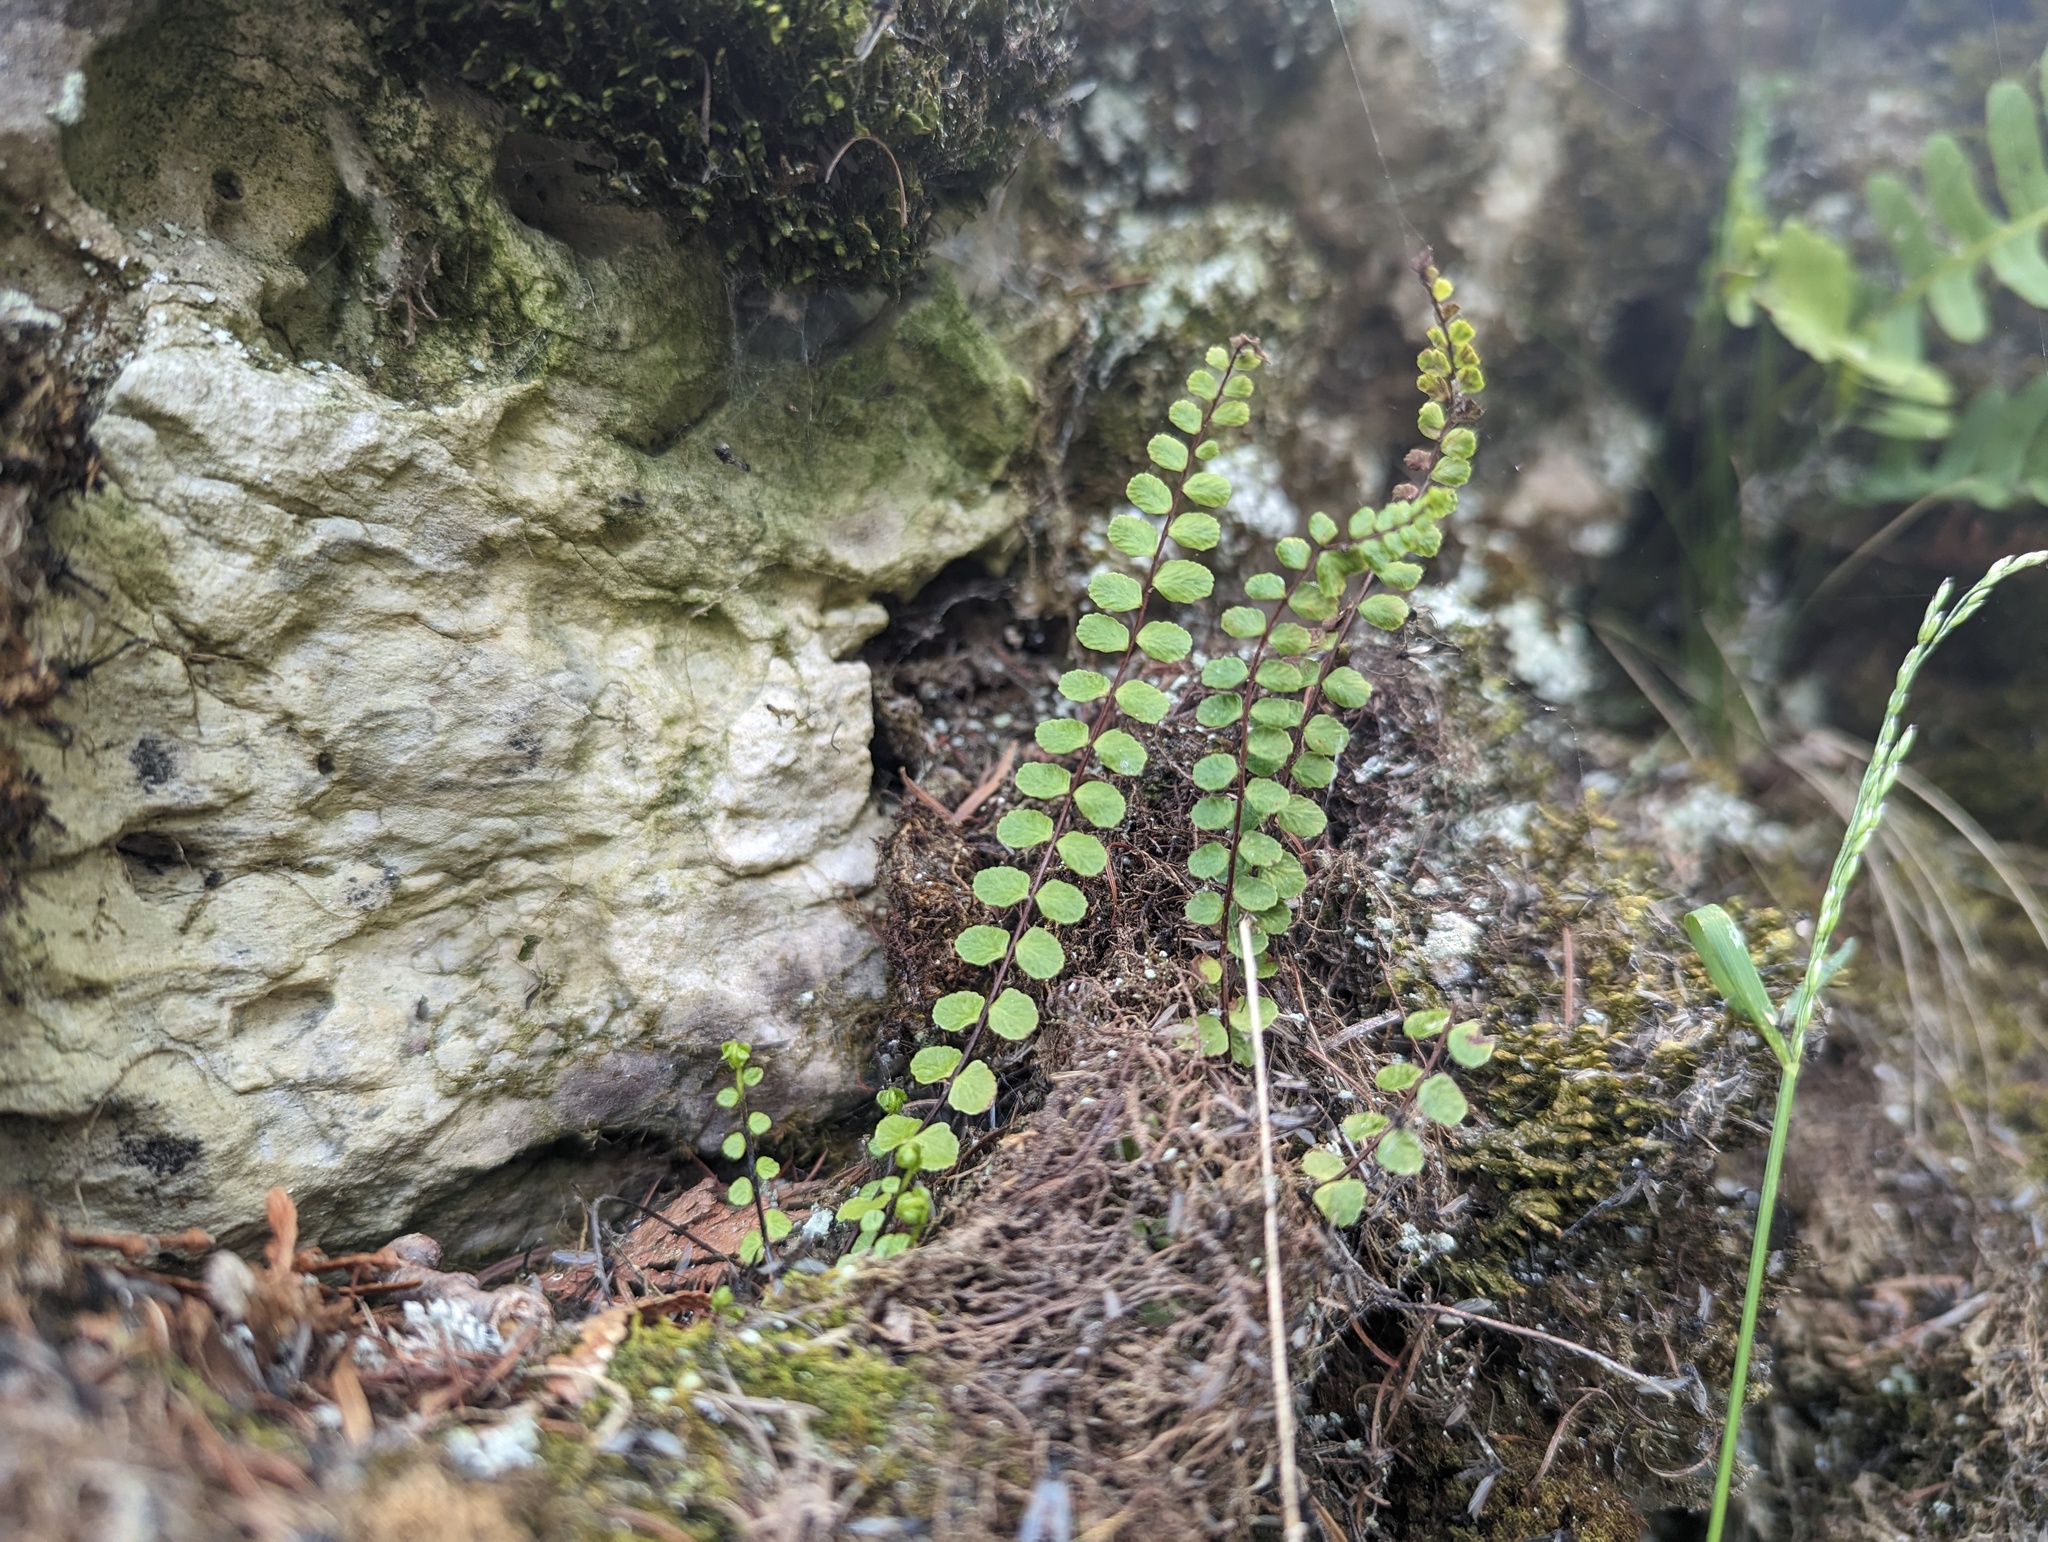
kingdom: Plantae
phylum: Tracheophyta
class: Polypodiopsida
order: Polypodiales
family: Aspleniaceae
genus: Asplenium
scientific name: Asplenium trichomanes
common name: Maidenhair spleenwort
